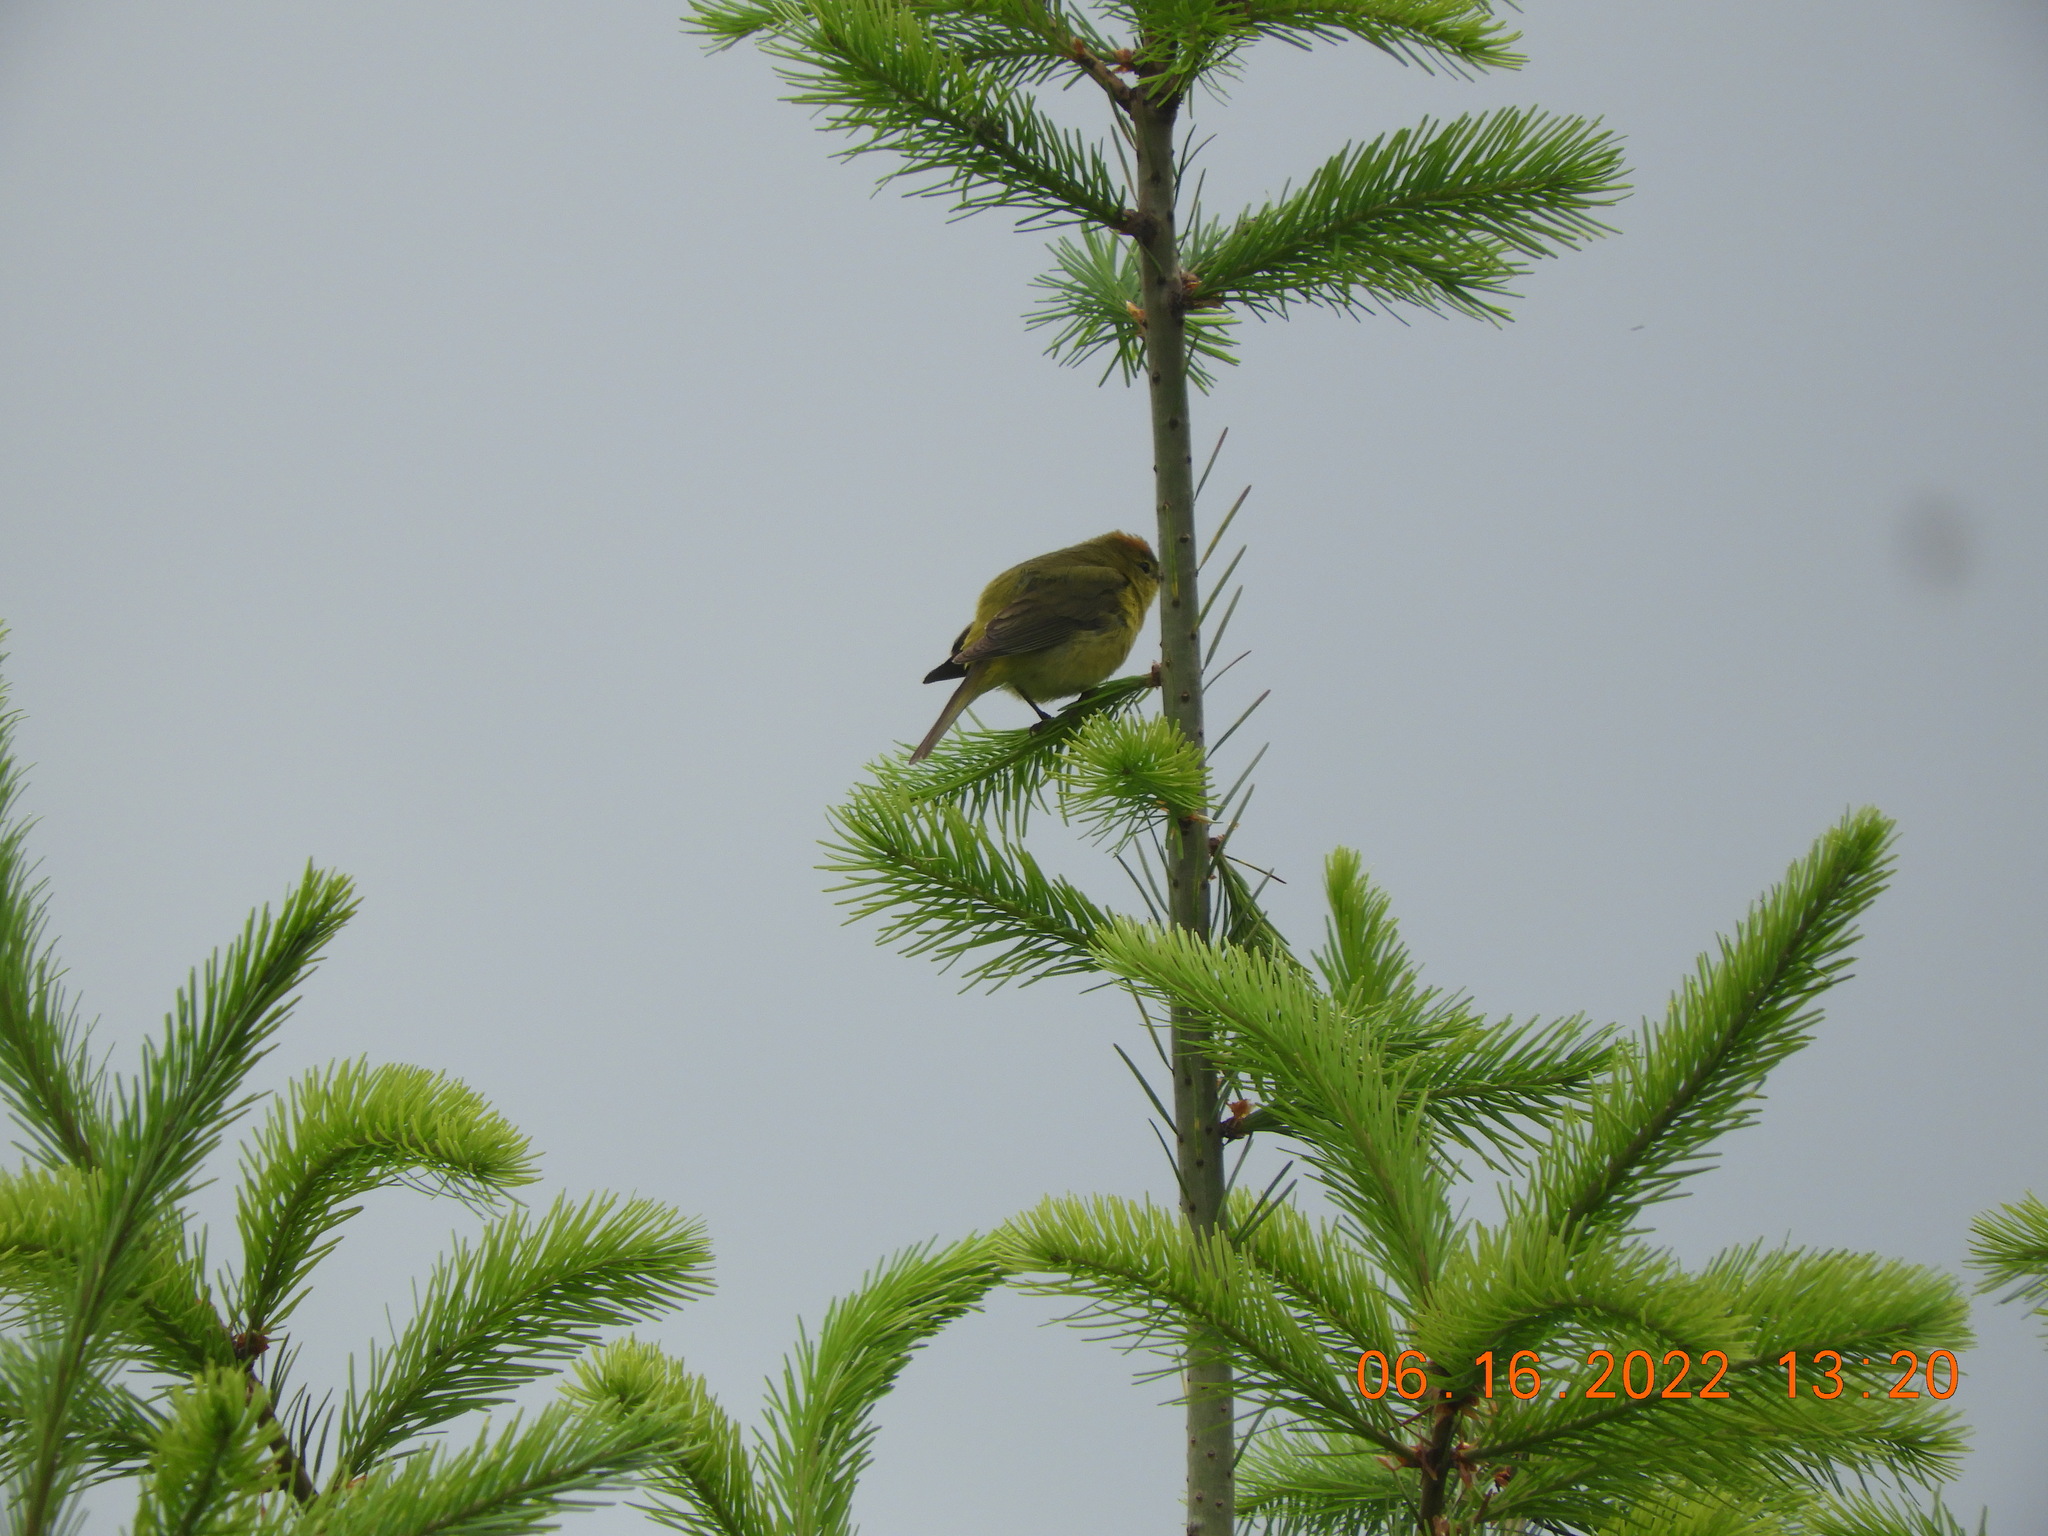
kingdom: Animalia
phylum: Chordata
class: Aves
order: Passeriformes
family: Parulidae
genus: Leiothlypis
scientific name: Leiothlypis celata
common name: Orange-crowned warbler
